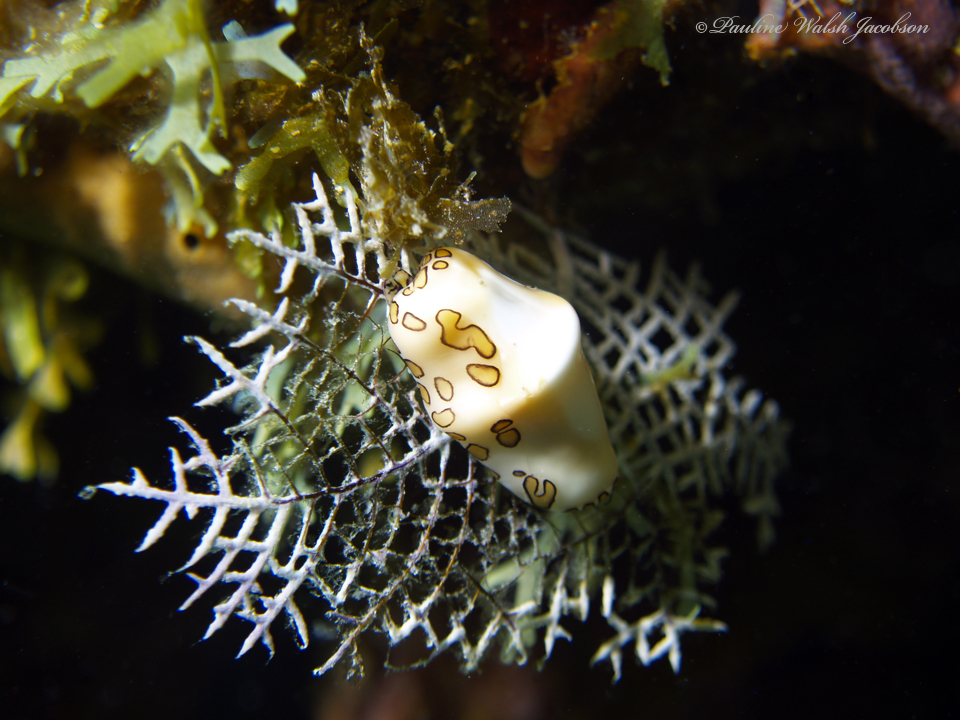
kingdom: Animalia
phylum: Mollusca
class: Gastropoda
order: Littorinimorpha
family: Ovulidae
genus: Cyphoma
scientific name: Cyphoma gibbosum
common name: Flamingo tongue
